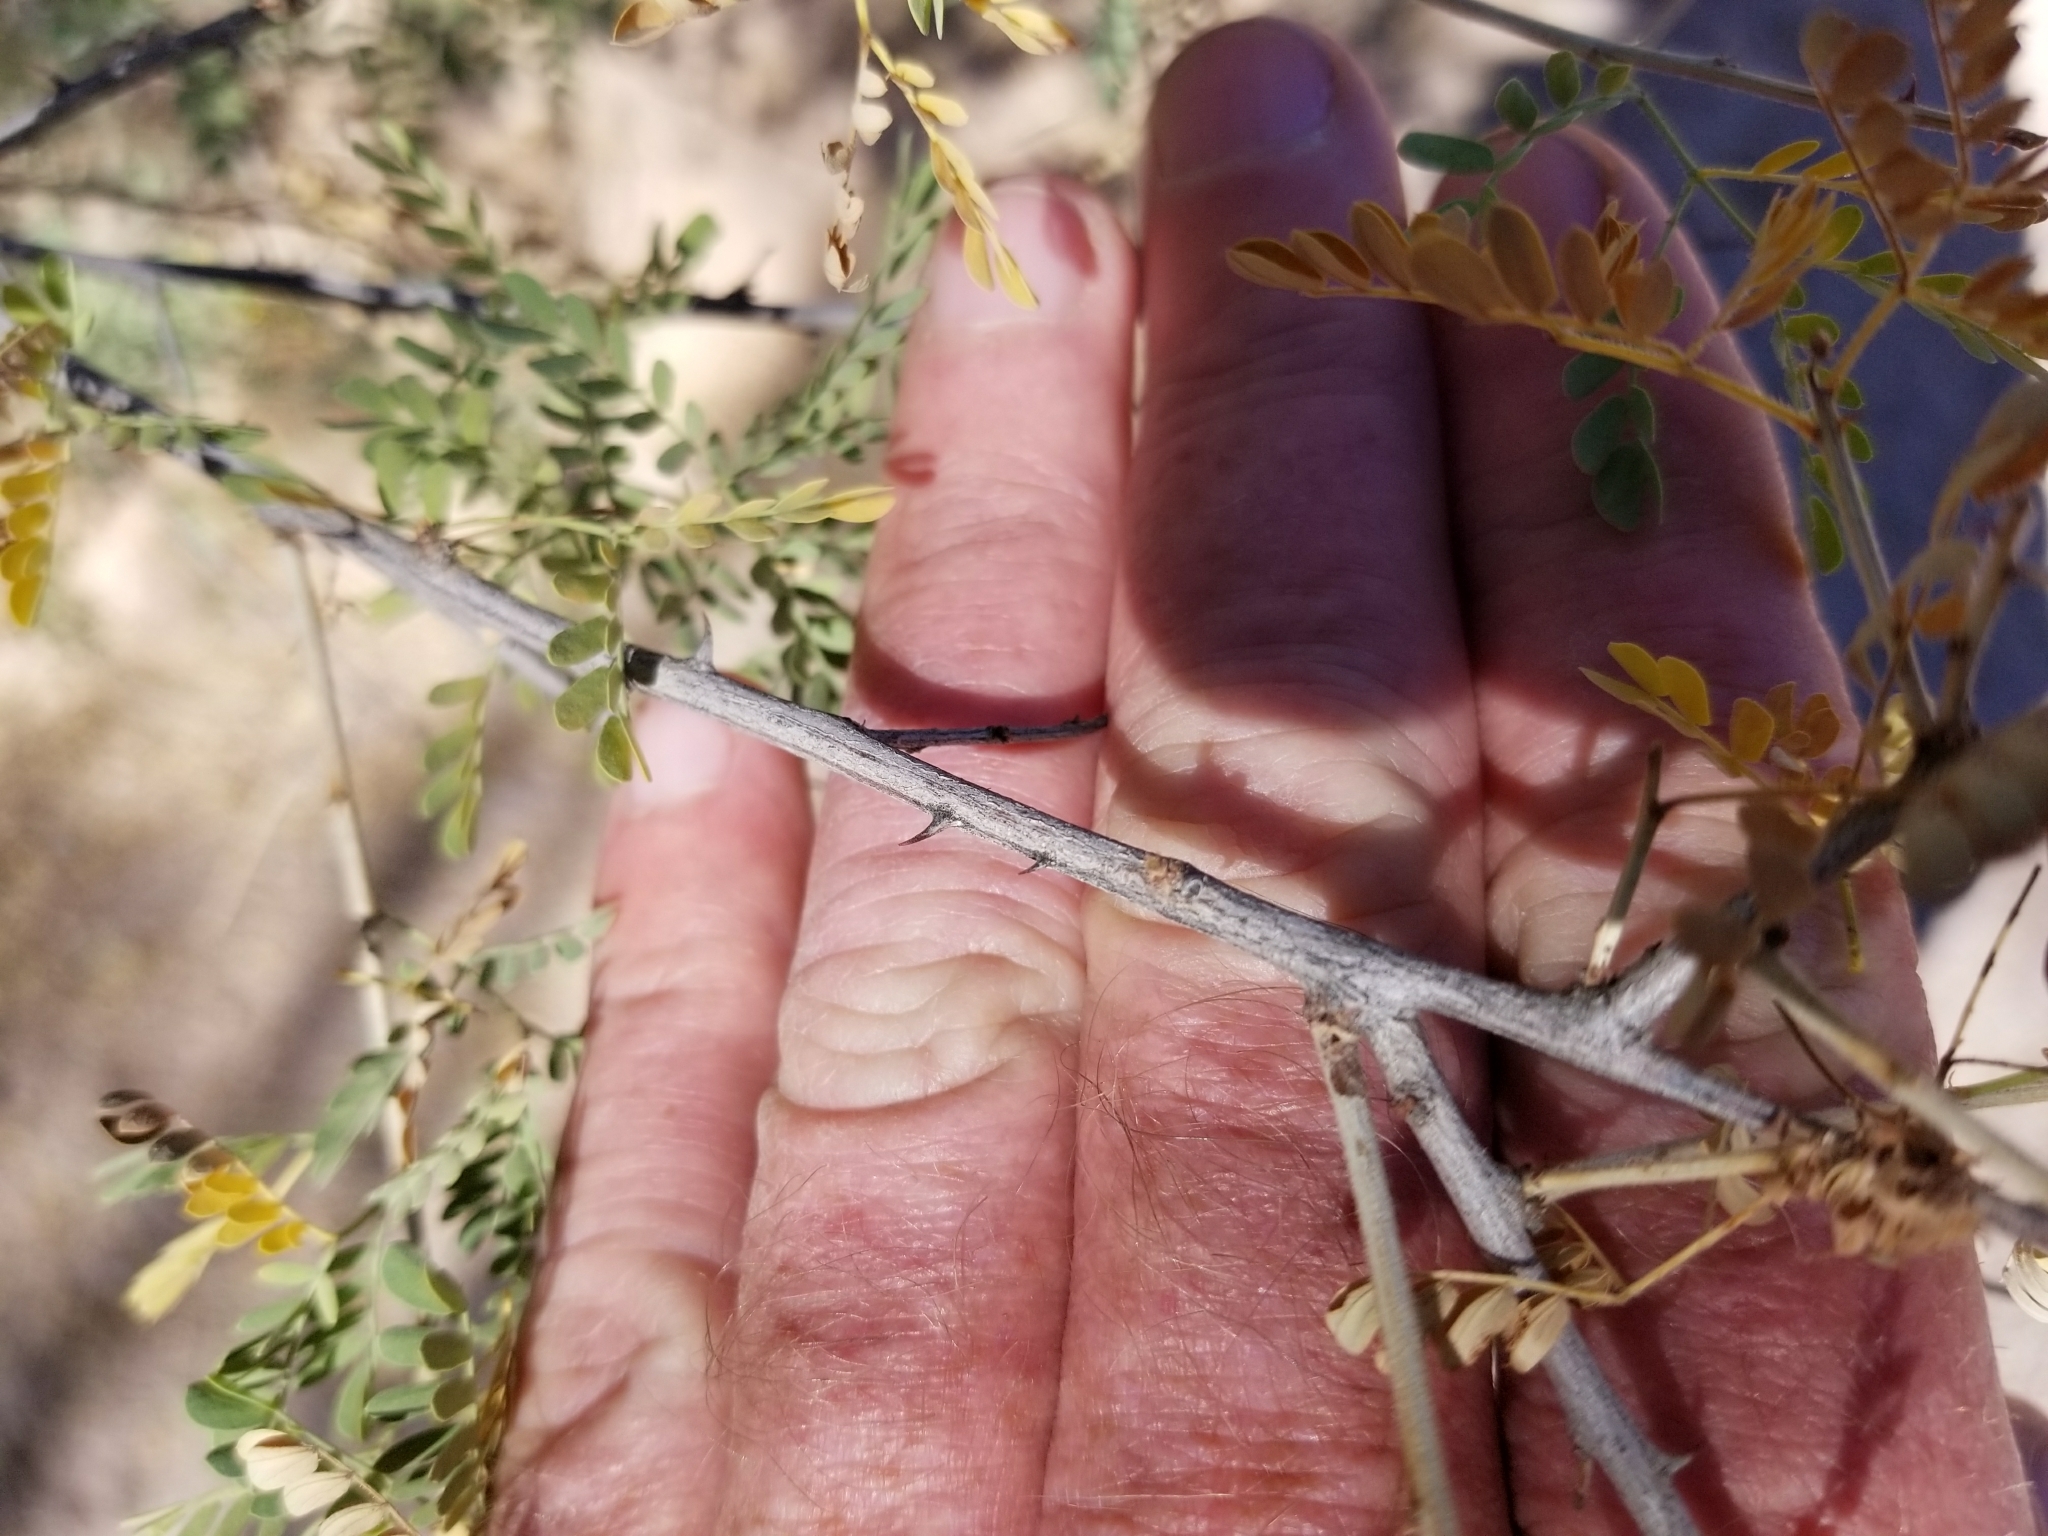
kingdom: Plantae
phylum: Tracheophyta
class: Magnoliopsida
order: Fabales
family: Fabaceae
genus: Senegalia
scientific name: Senegalia greggii
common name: Texas-mimosa
